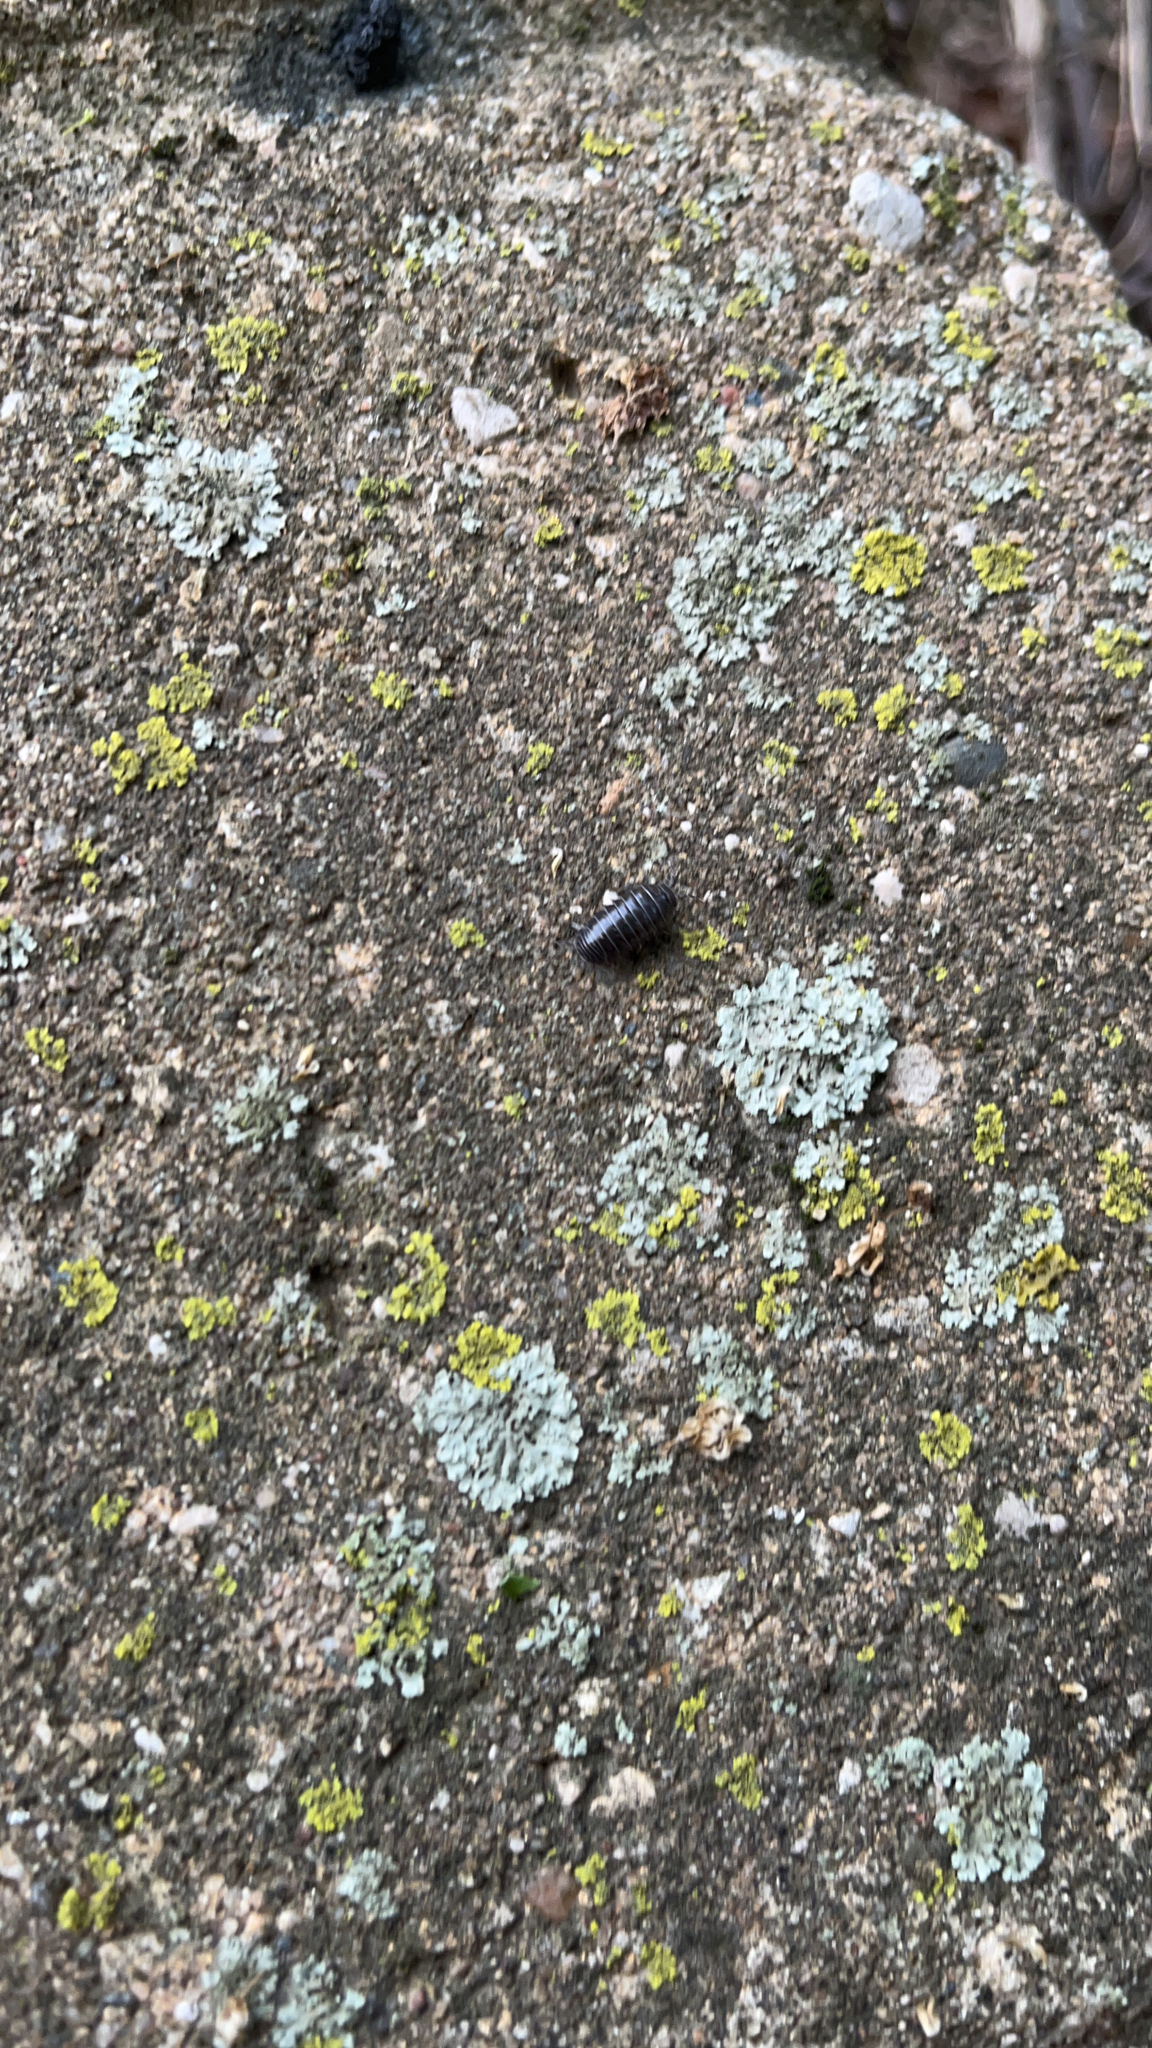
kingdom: Animalia
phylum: Arthropoda
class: Malacostraca
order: Isopoda
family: Armadillidiidae
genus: Armadillidium
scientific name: Armadillidium vulgare
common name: Common pill woodlouse
